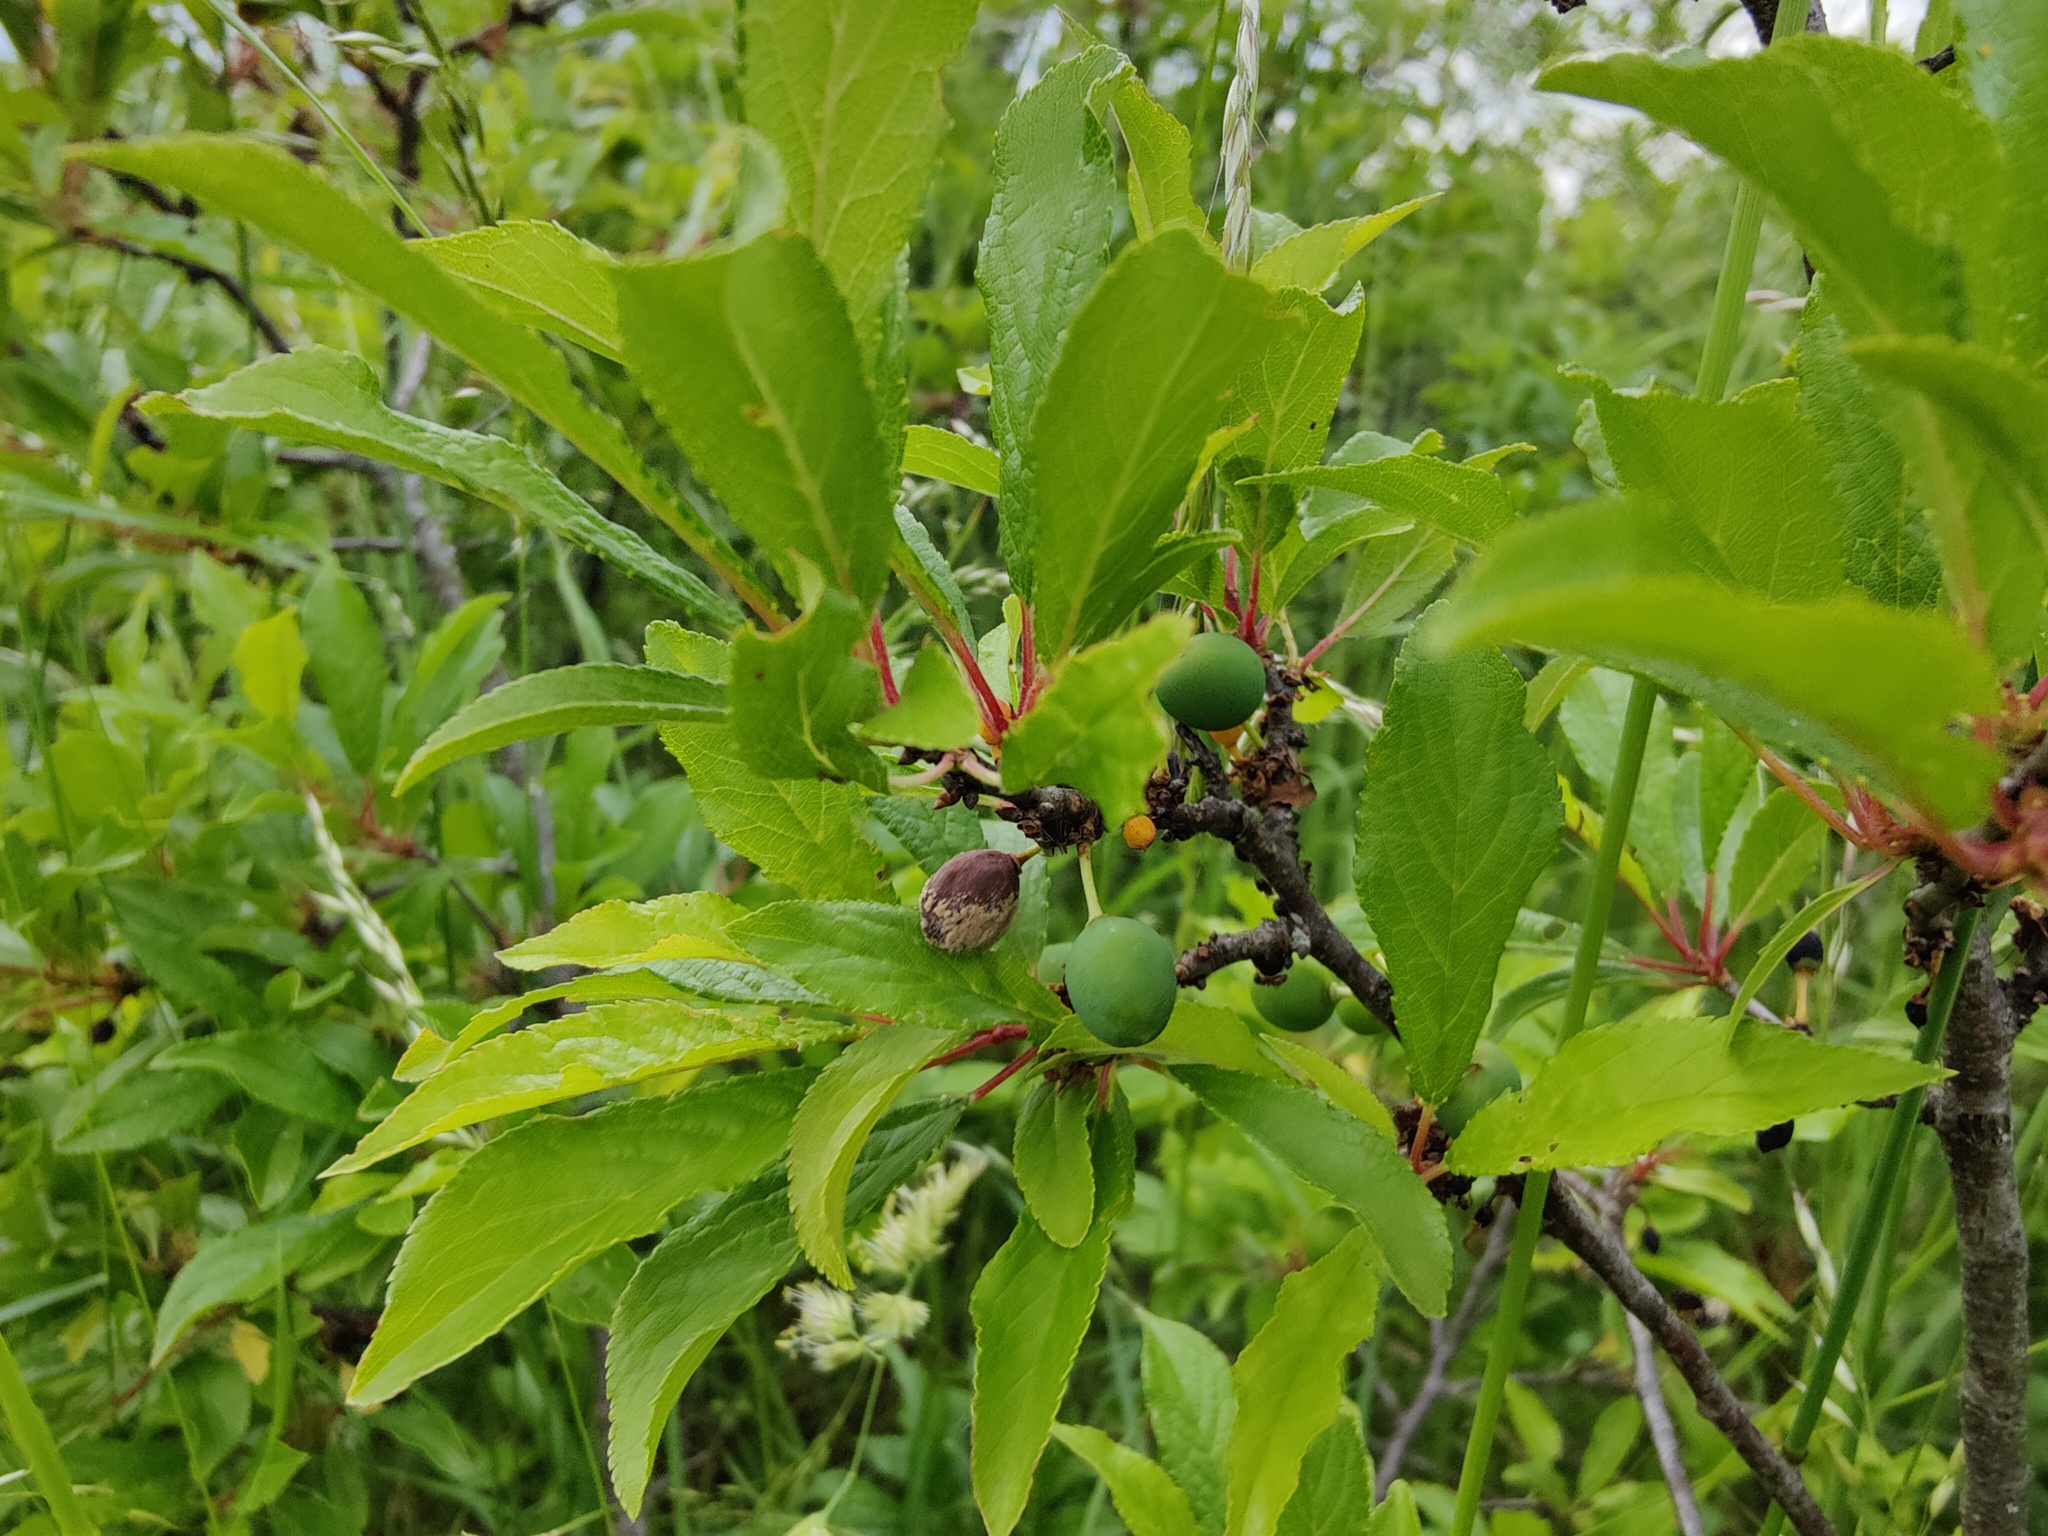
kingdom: Plantae
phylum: Tracheophyta
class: Magnoliopsida
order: Rosales
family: Rosaceae
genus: Prunus
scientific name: Prunus spinosa
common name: Blackthorn
